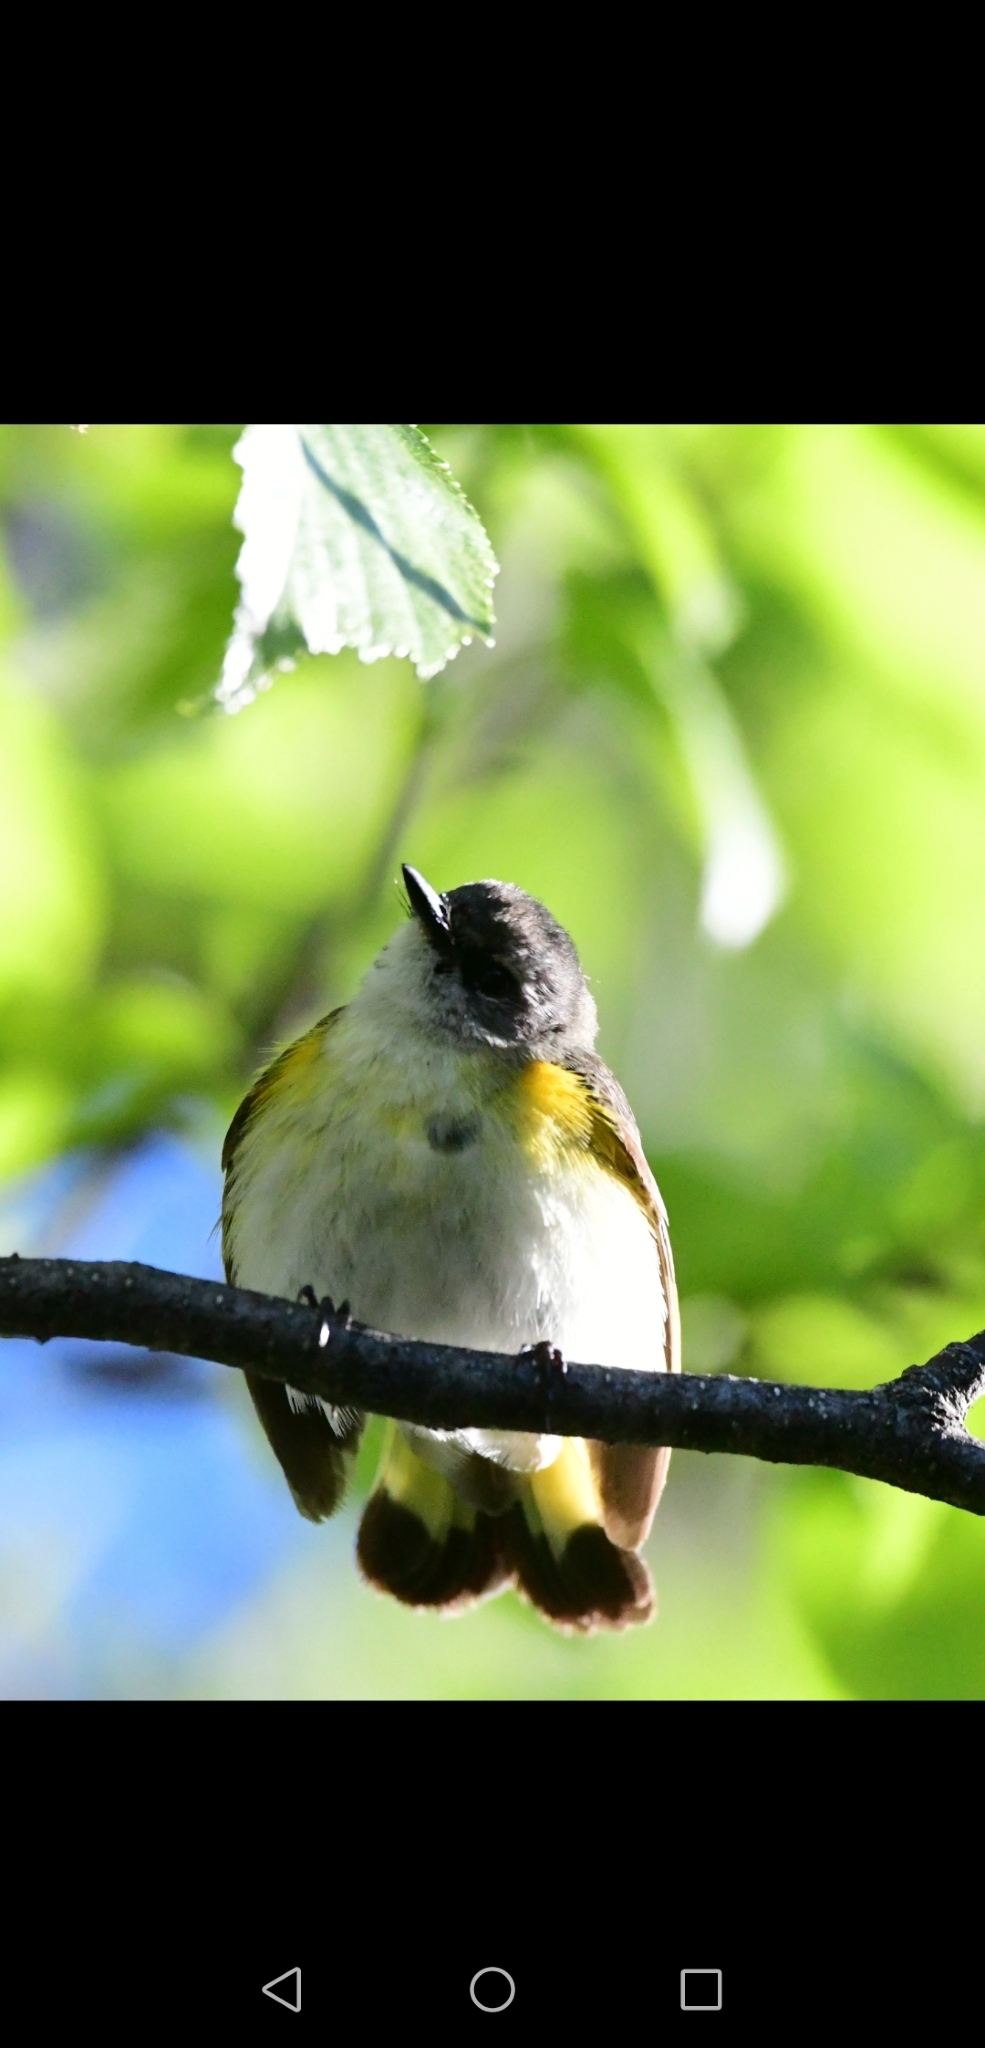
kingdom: Animalia
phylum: Chordata
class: Aves
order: Passeriformes
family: Parulidae
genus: Setophaga
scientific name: Setophaga ruticilla
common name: American redstart
